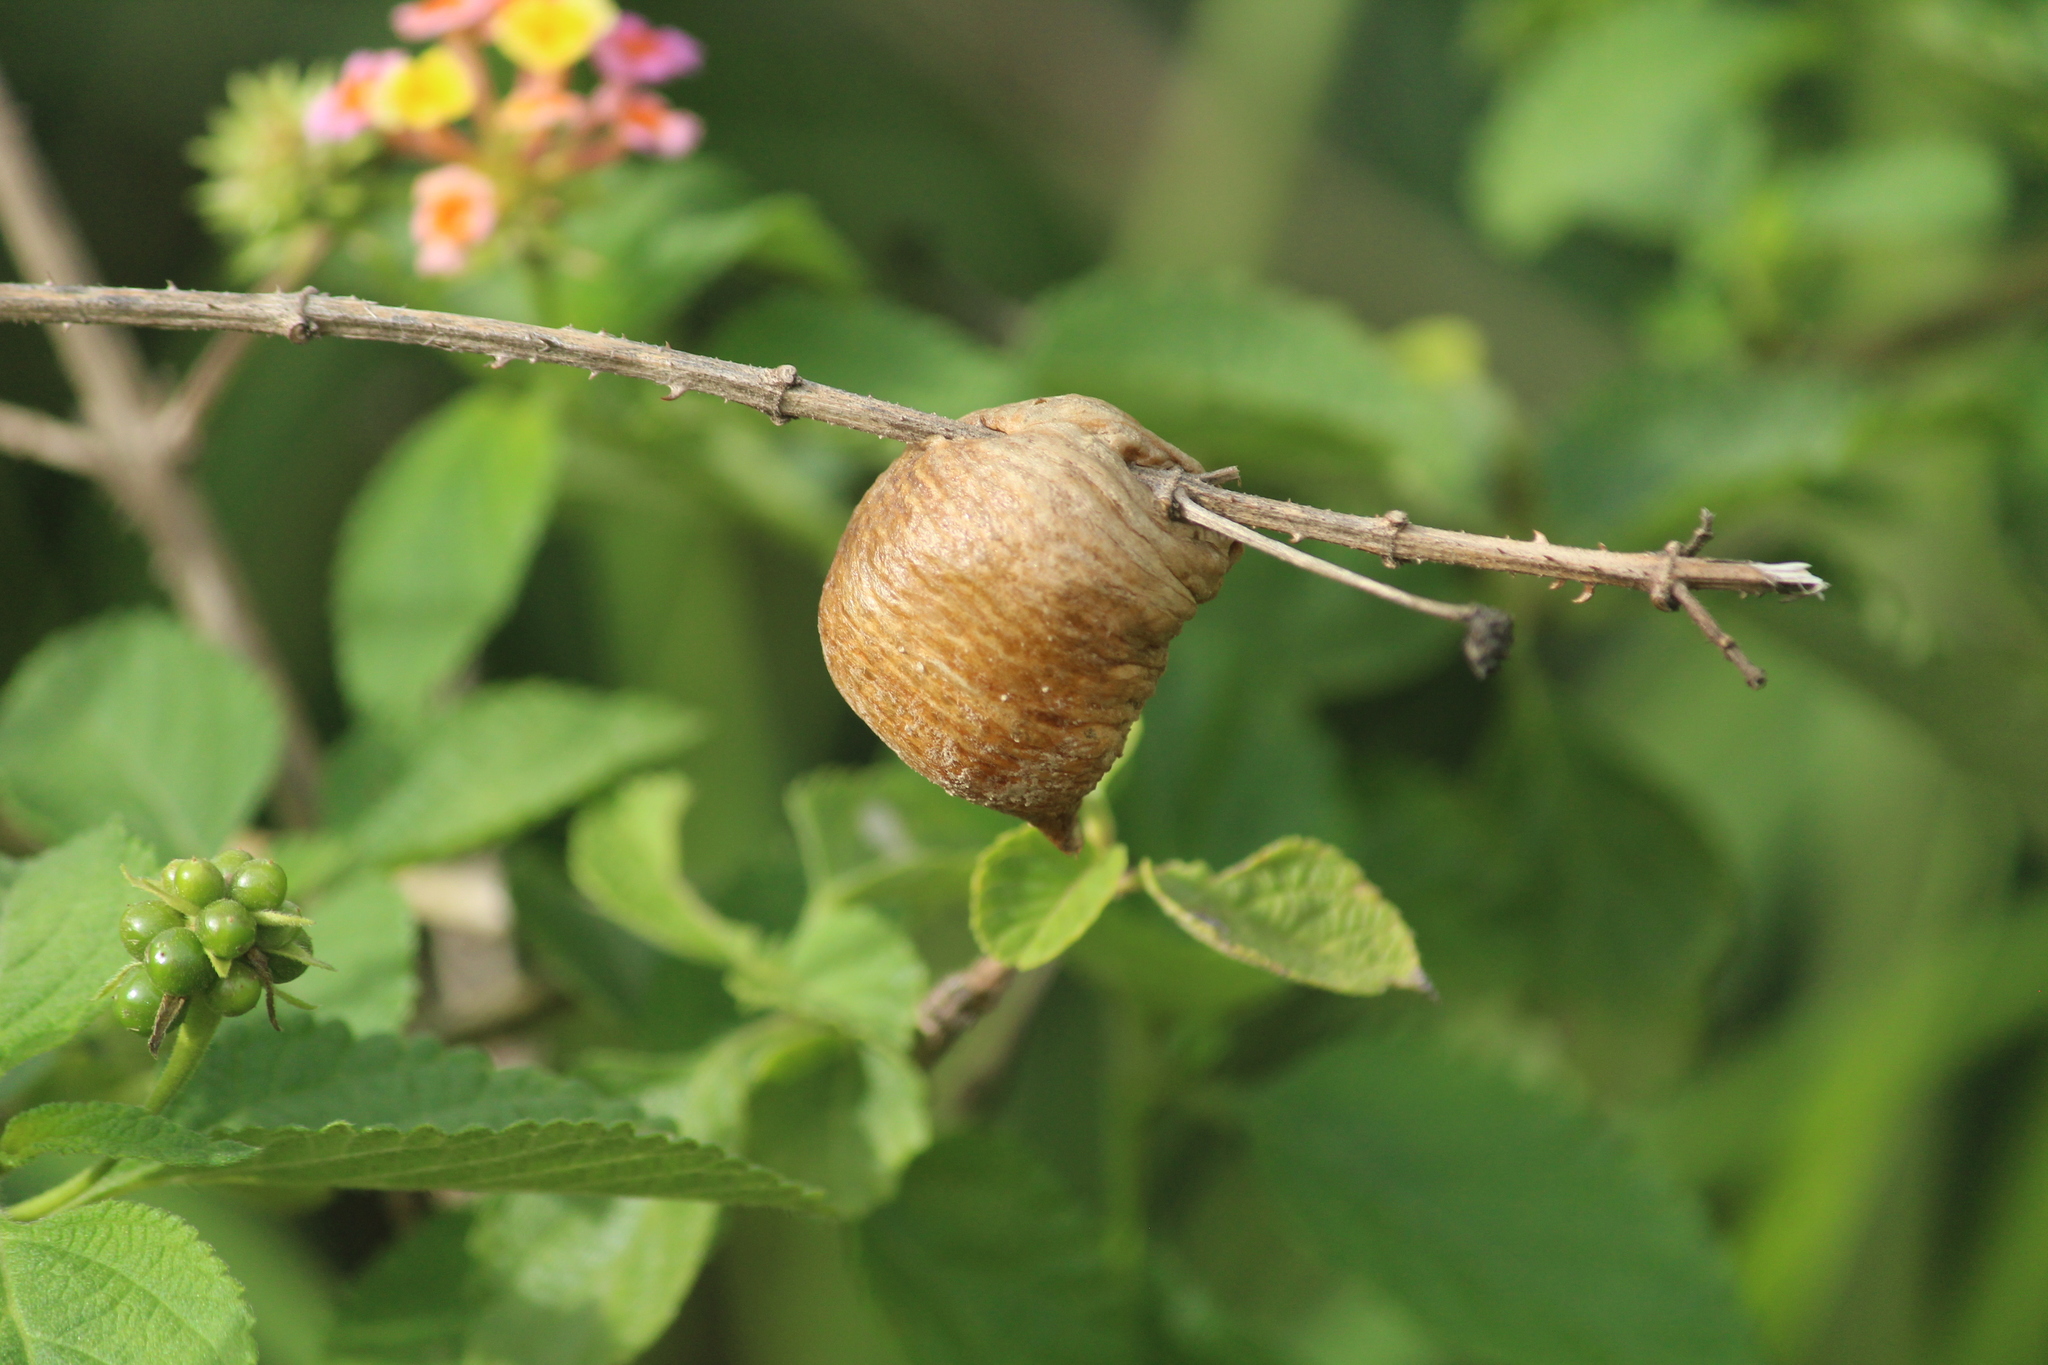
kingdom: Animalia
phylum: Arthropoda
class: Insecta
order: Mantodea
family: Mantidae
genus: Hierodula
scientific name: Hierodula membranacea
